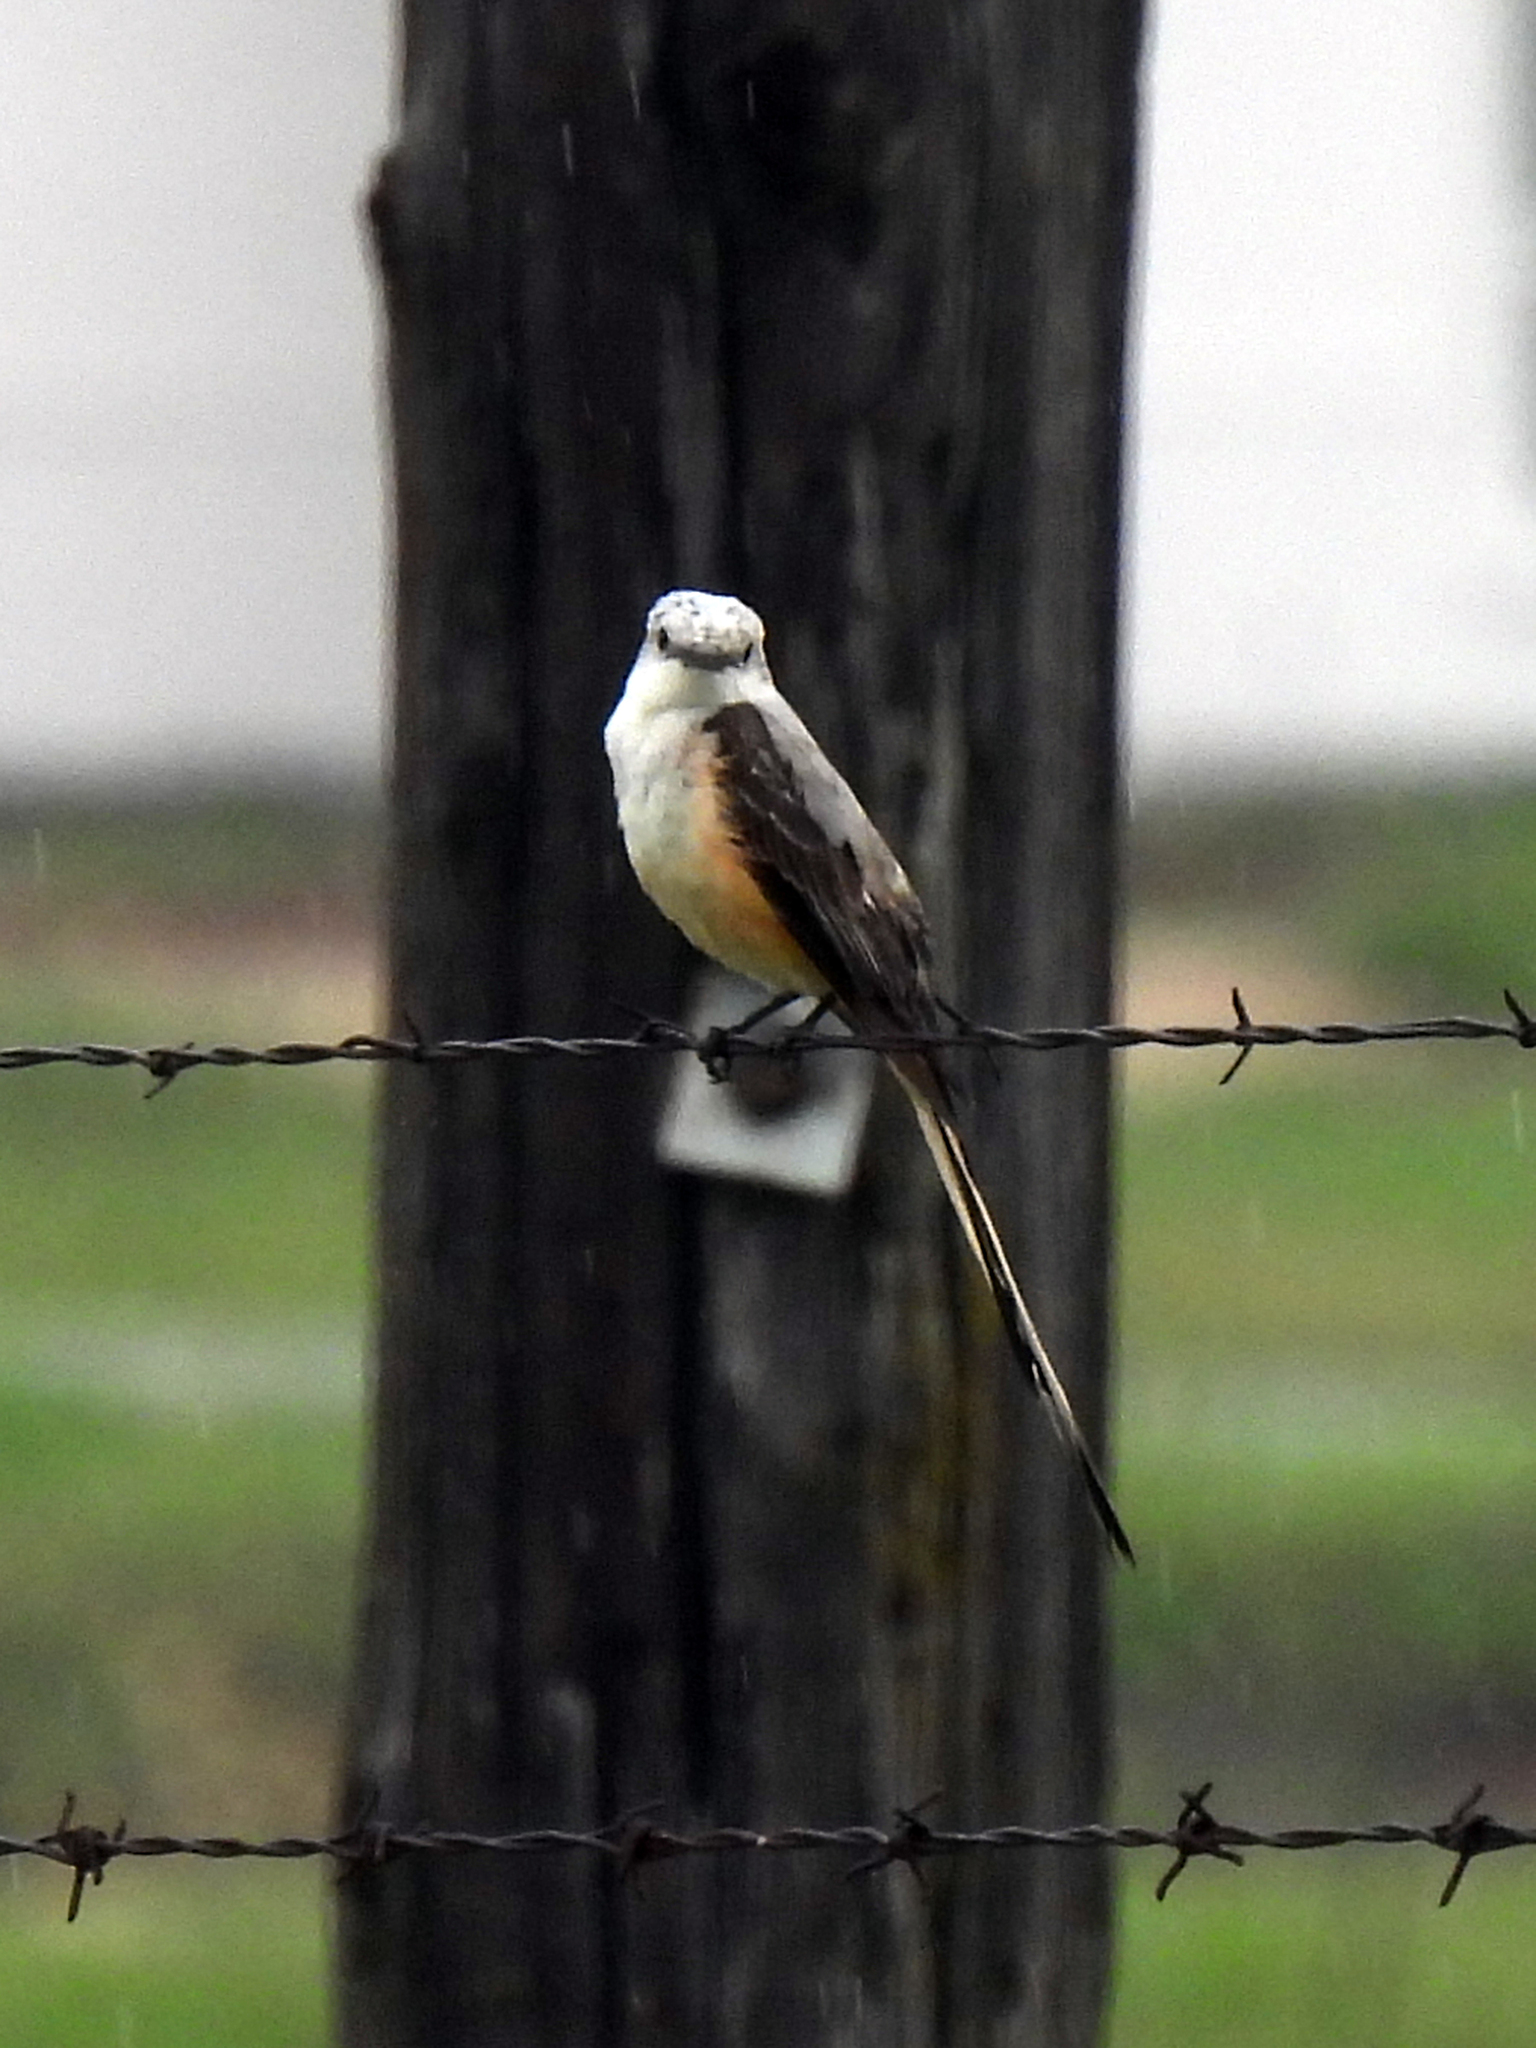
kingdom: Animalia
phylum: Chordata
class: Aves
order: Passeriformes
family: Tyrannidae
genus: Tyrannus
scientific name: Tyrannus forficatus
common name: Scissor-tailed flycatcher
